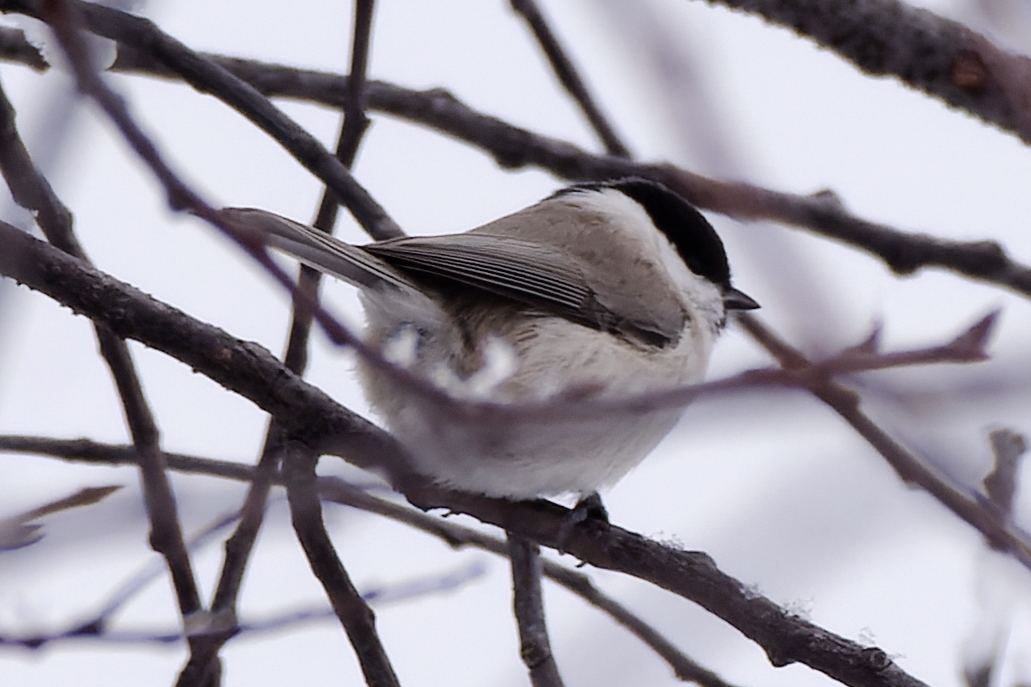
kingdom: Animalia
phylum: Chordata
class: Aves
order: Passeriformes
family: Paridae
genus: Poecile
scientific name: Poecile montanus
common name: Willow tit
